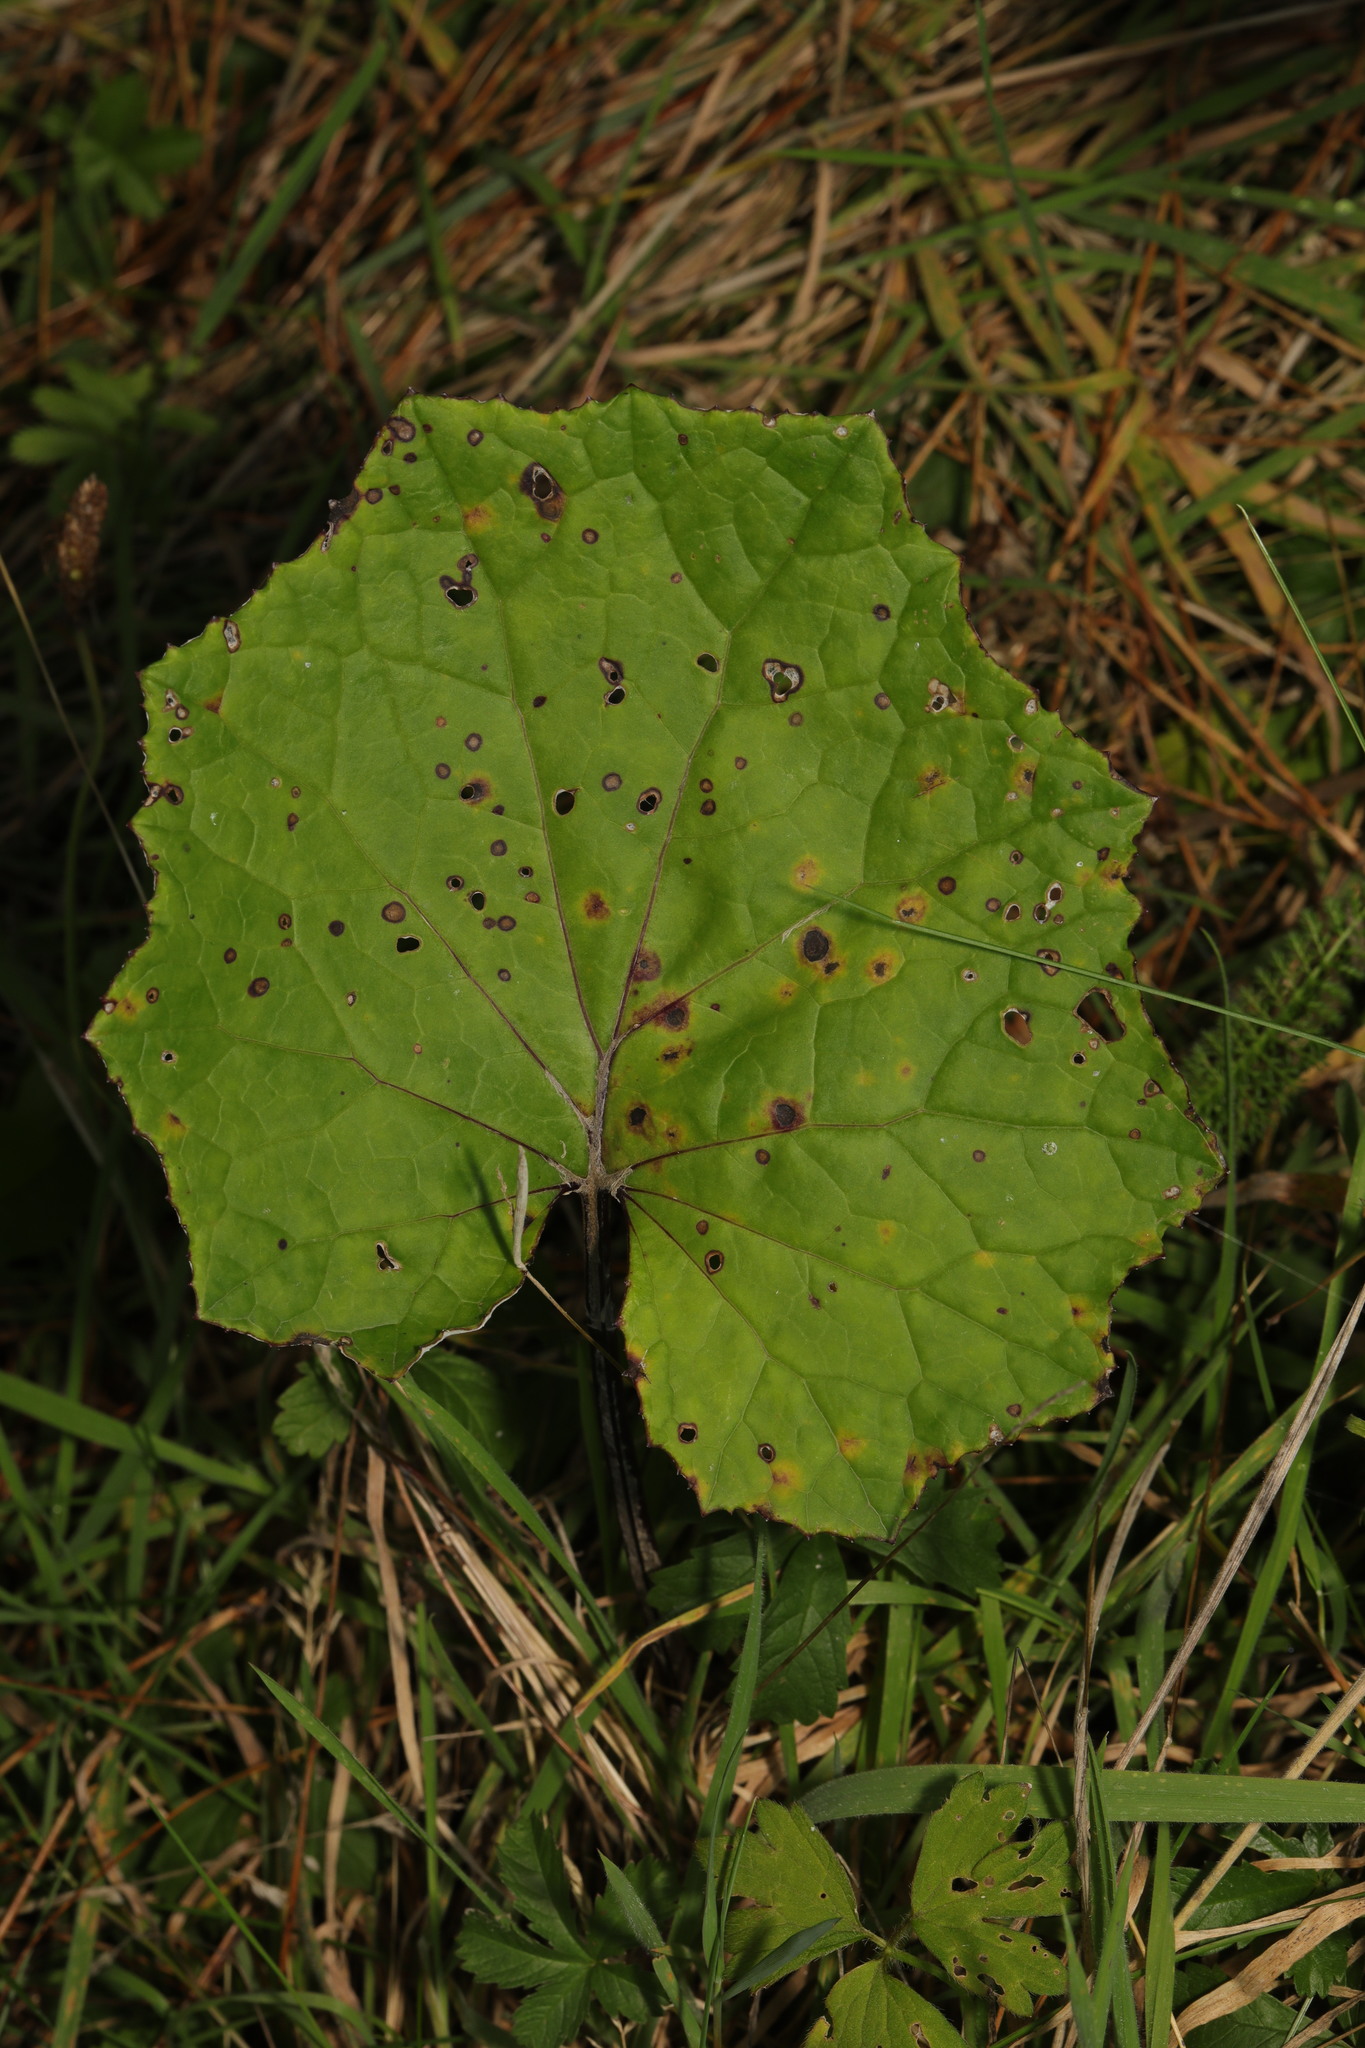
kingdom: Plantae
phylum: Tracheophyta
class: Magnoliopsida
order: Asterales
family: Asteraceae
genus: Tussilago
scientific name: Tussilago farfara
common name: Coltsfoot
